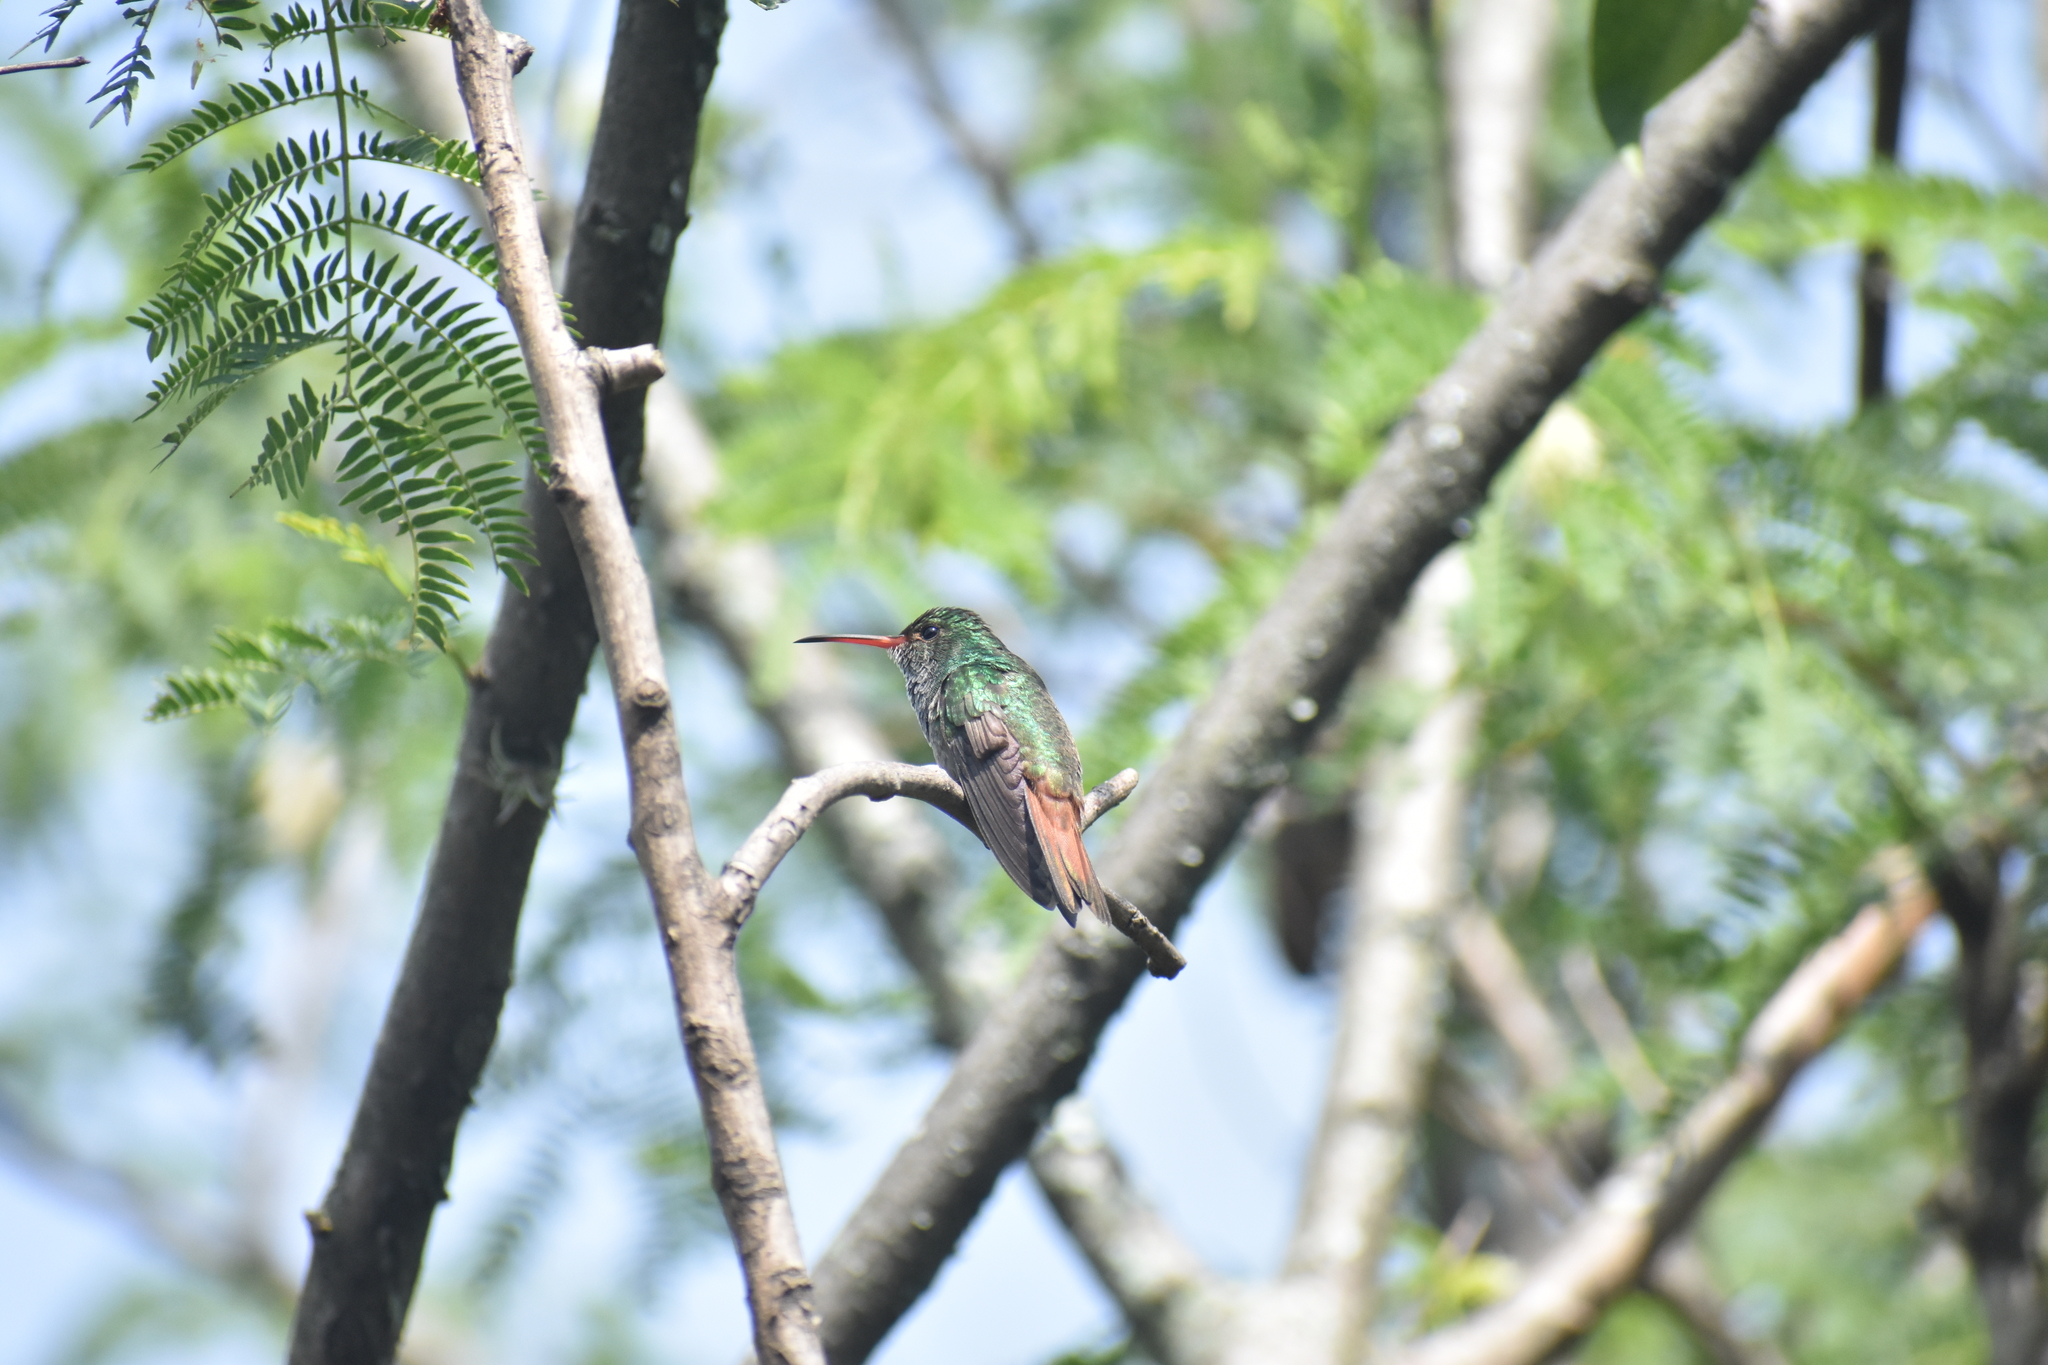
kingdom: Animalia
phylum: Chordata
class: Aves
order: Apodiformes
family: Trochilidae
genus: Amazilia
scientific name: Amazilia tzacatl
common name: Rufous-tailed hummingbird
